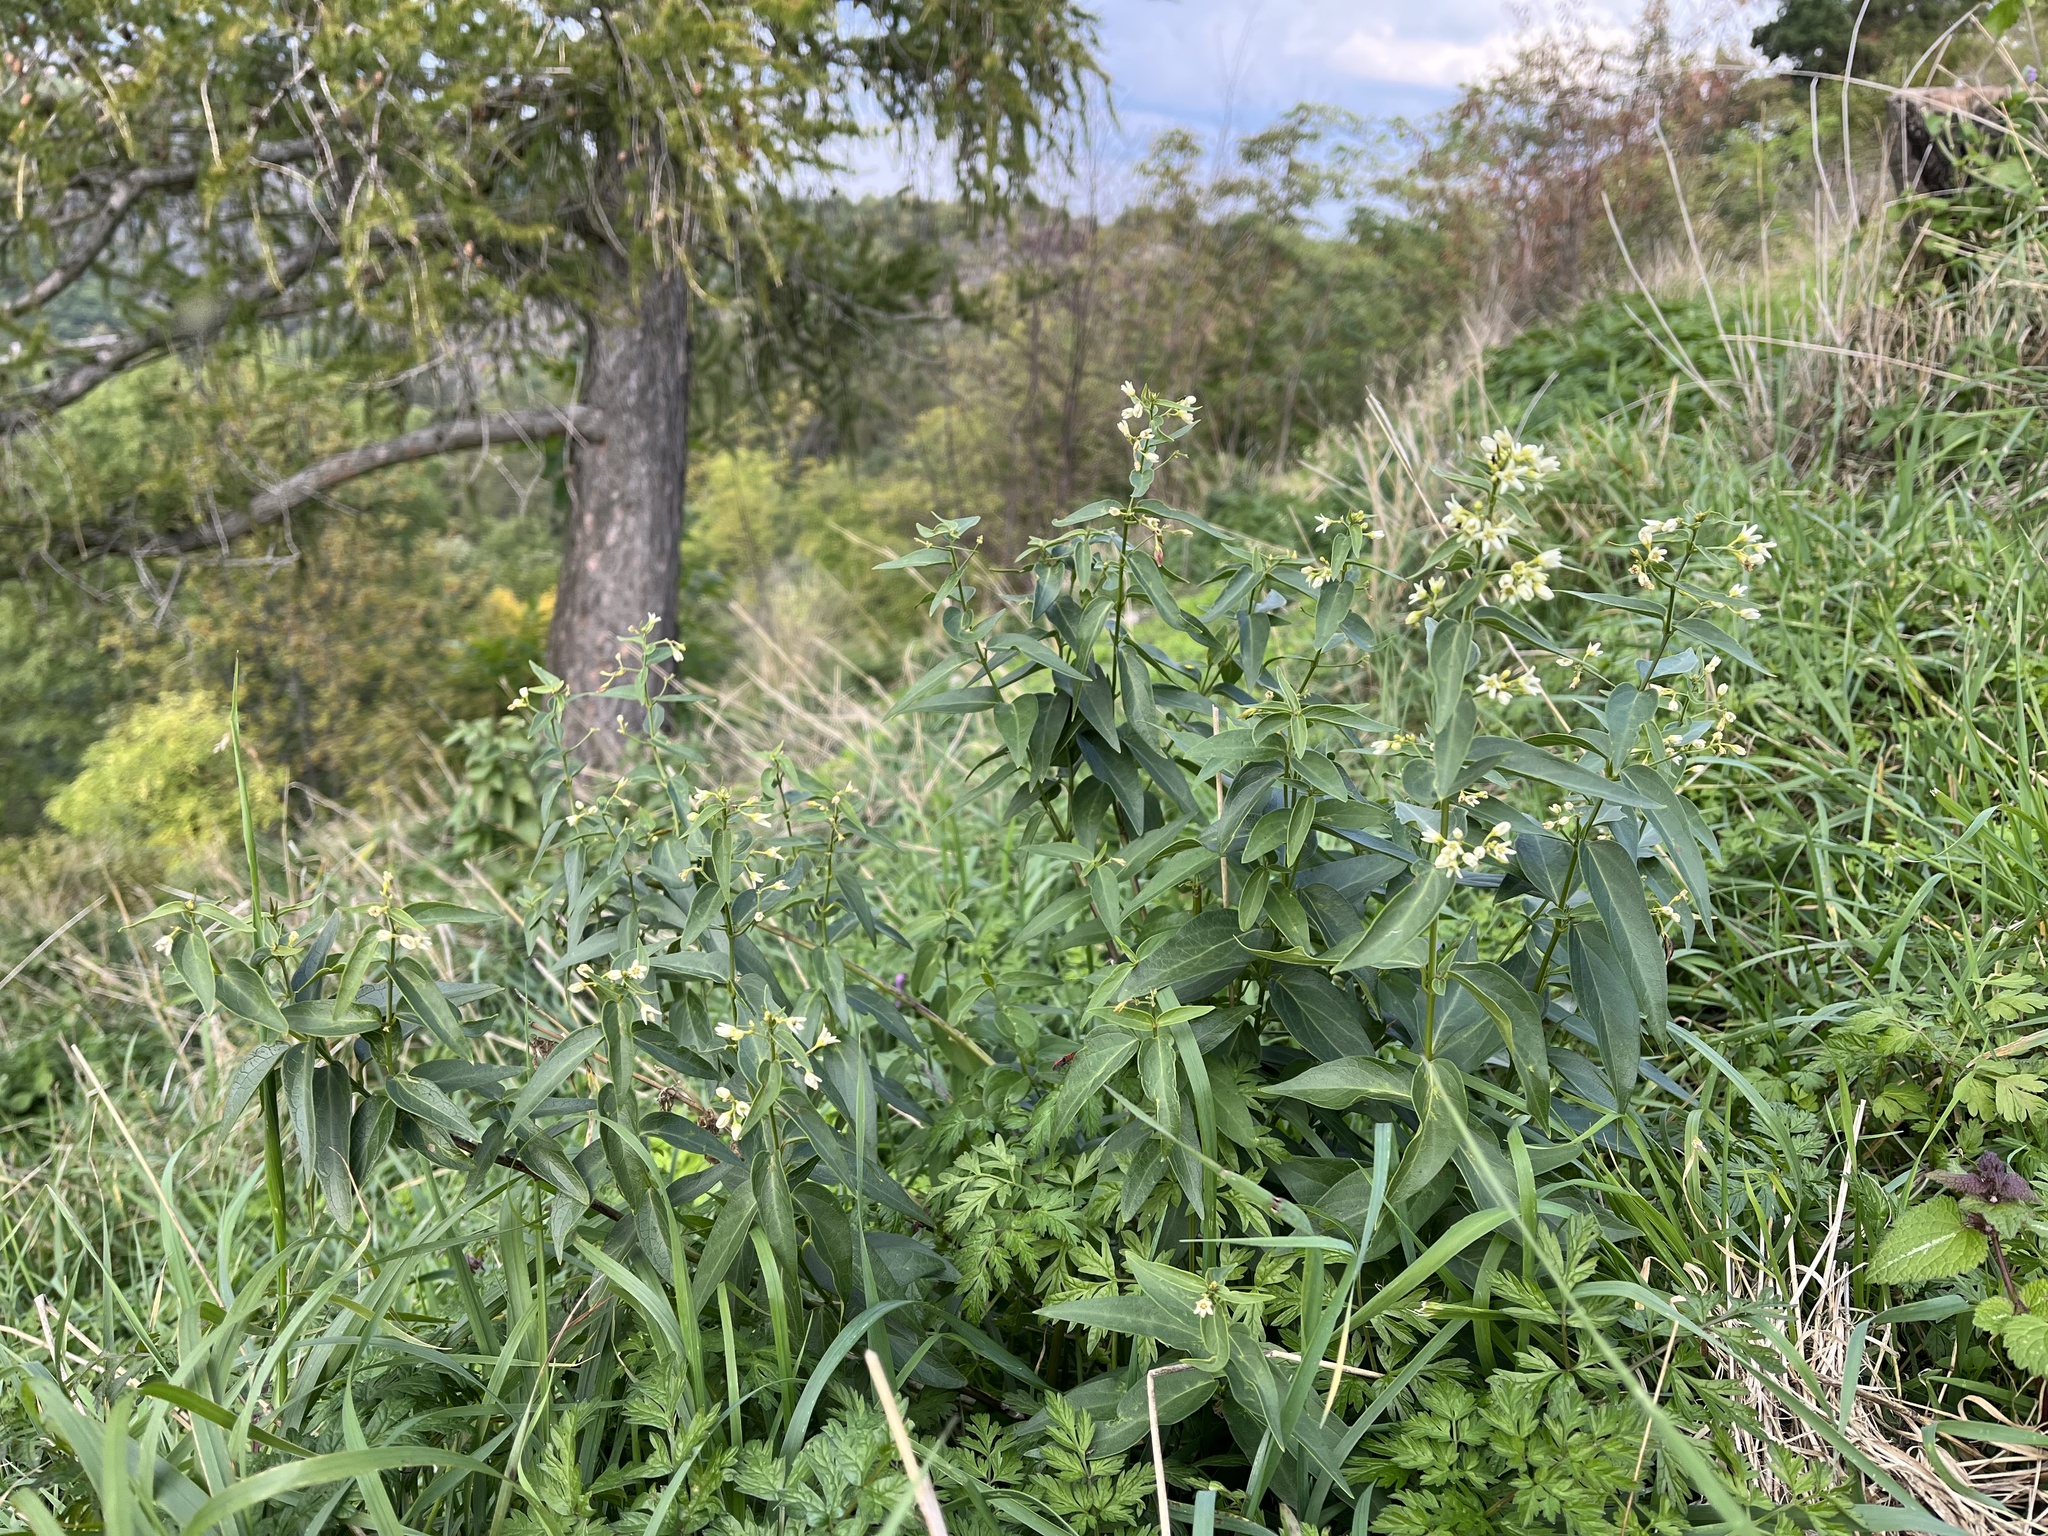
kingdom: Plantae
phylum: Tracheophyta
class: Magnoliopsida
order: Gentianales
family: Apocynaceae
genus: Vincetoxicum
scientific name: Vincetoxicum hirundinaria
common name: White swallowwort
